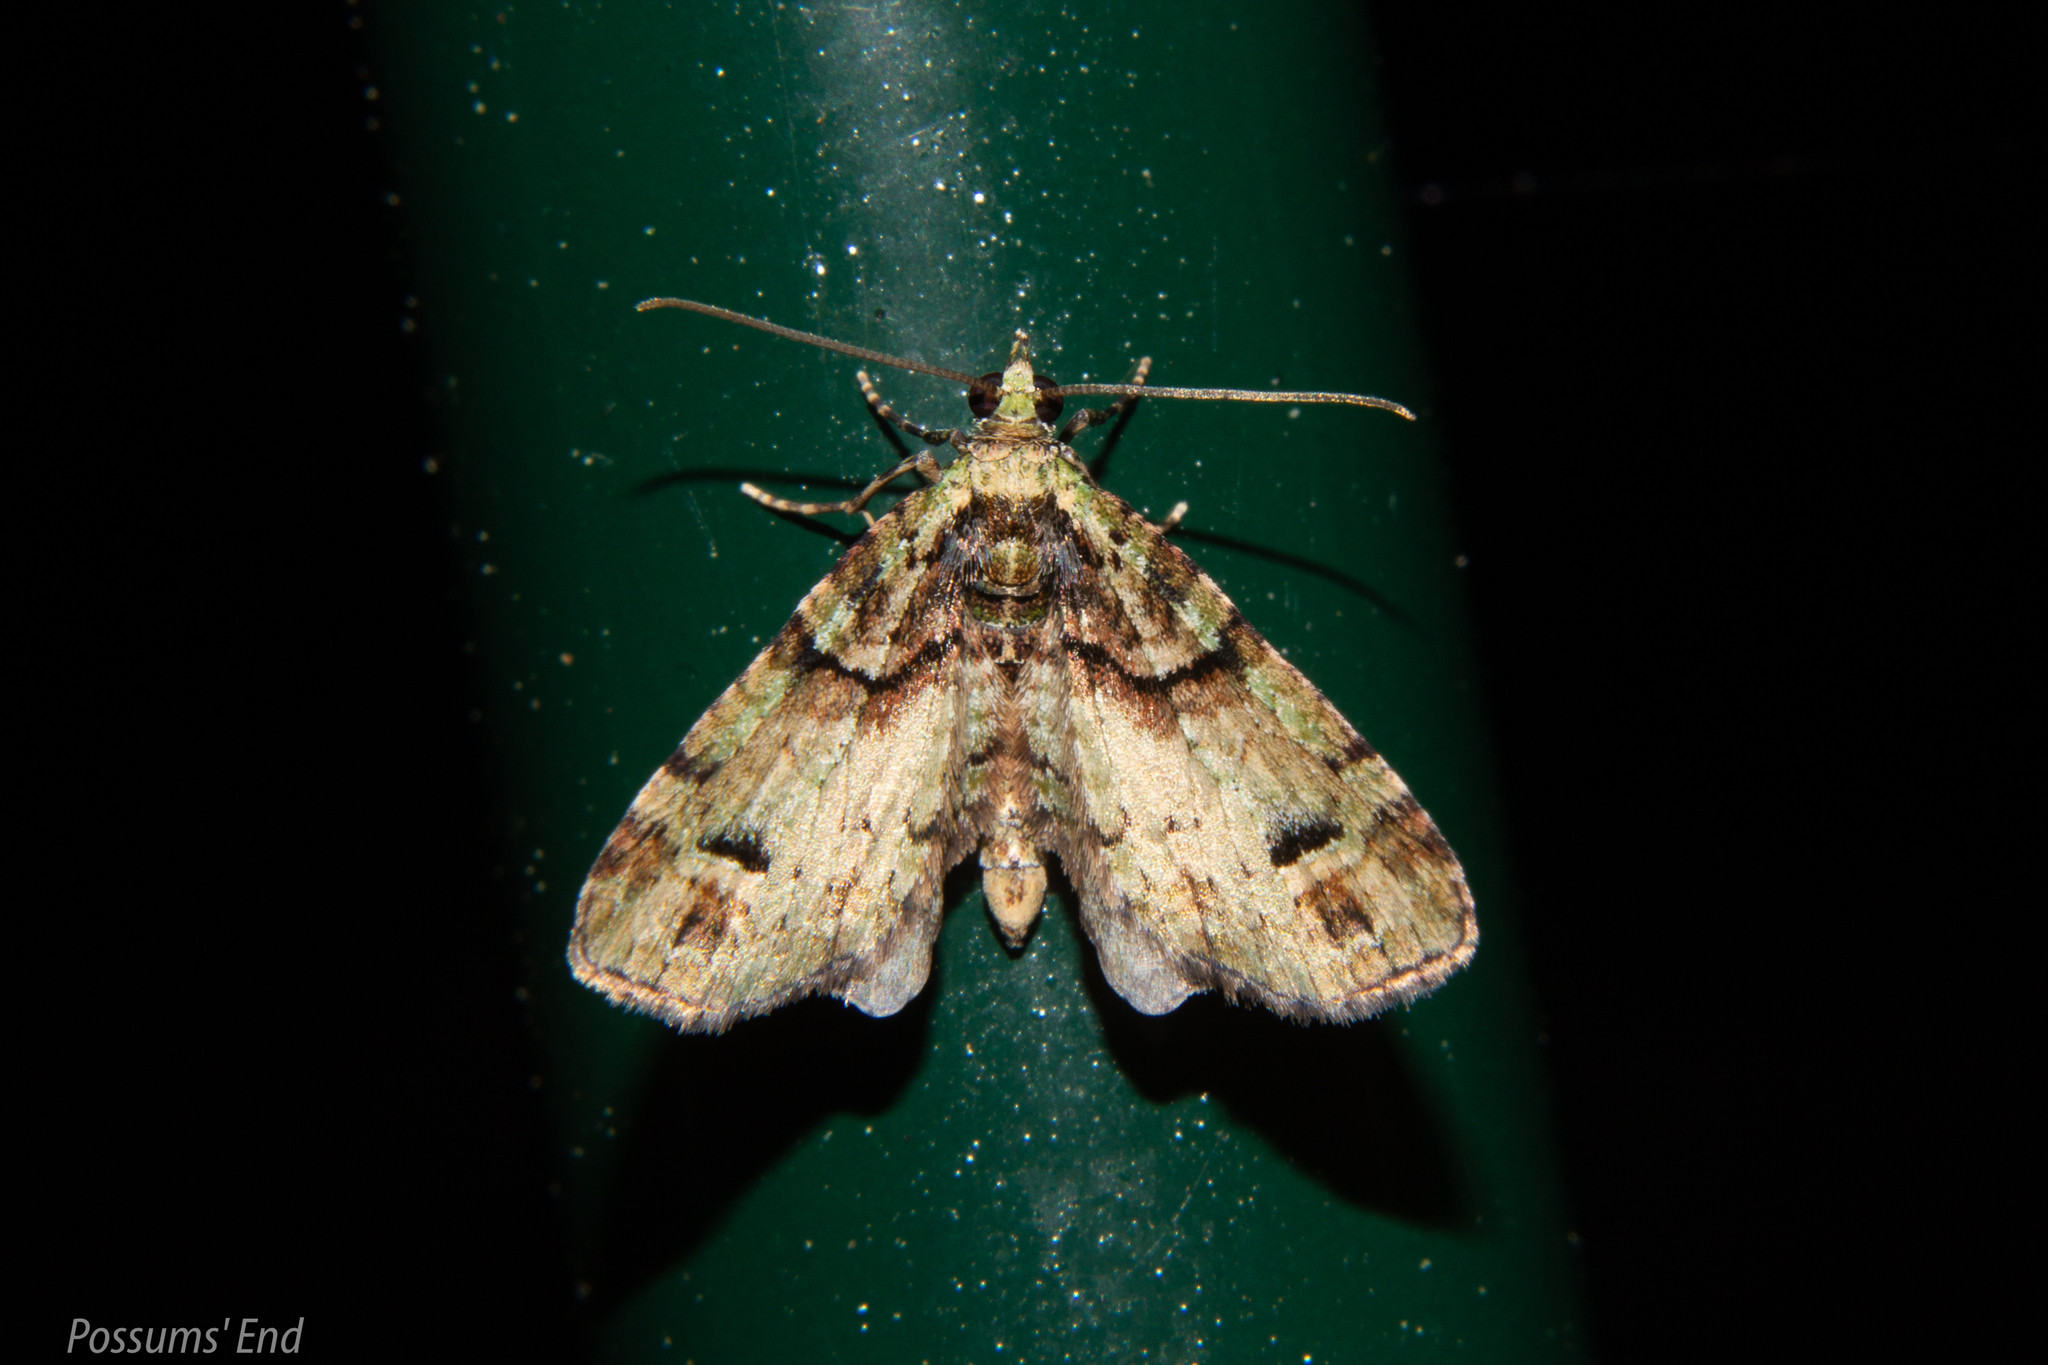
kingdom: Animalia
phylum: Arthropoda
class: Insecta
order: Lepidoptera
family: Geometridae
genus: Idaea
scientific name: Idaea mutanda
